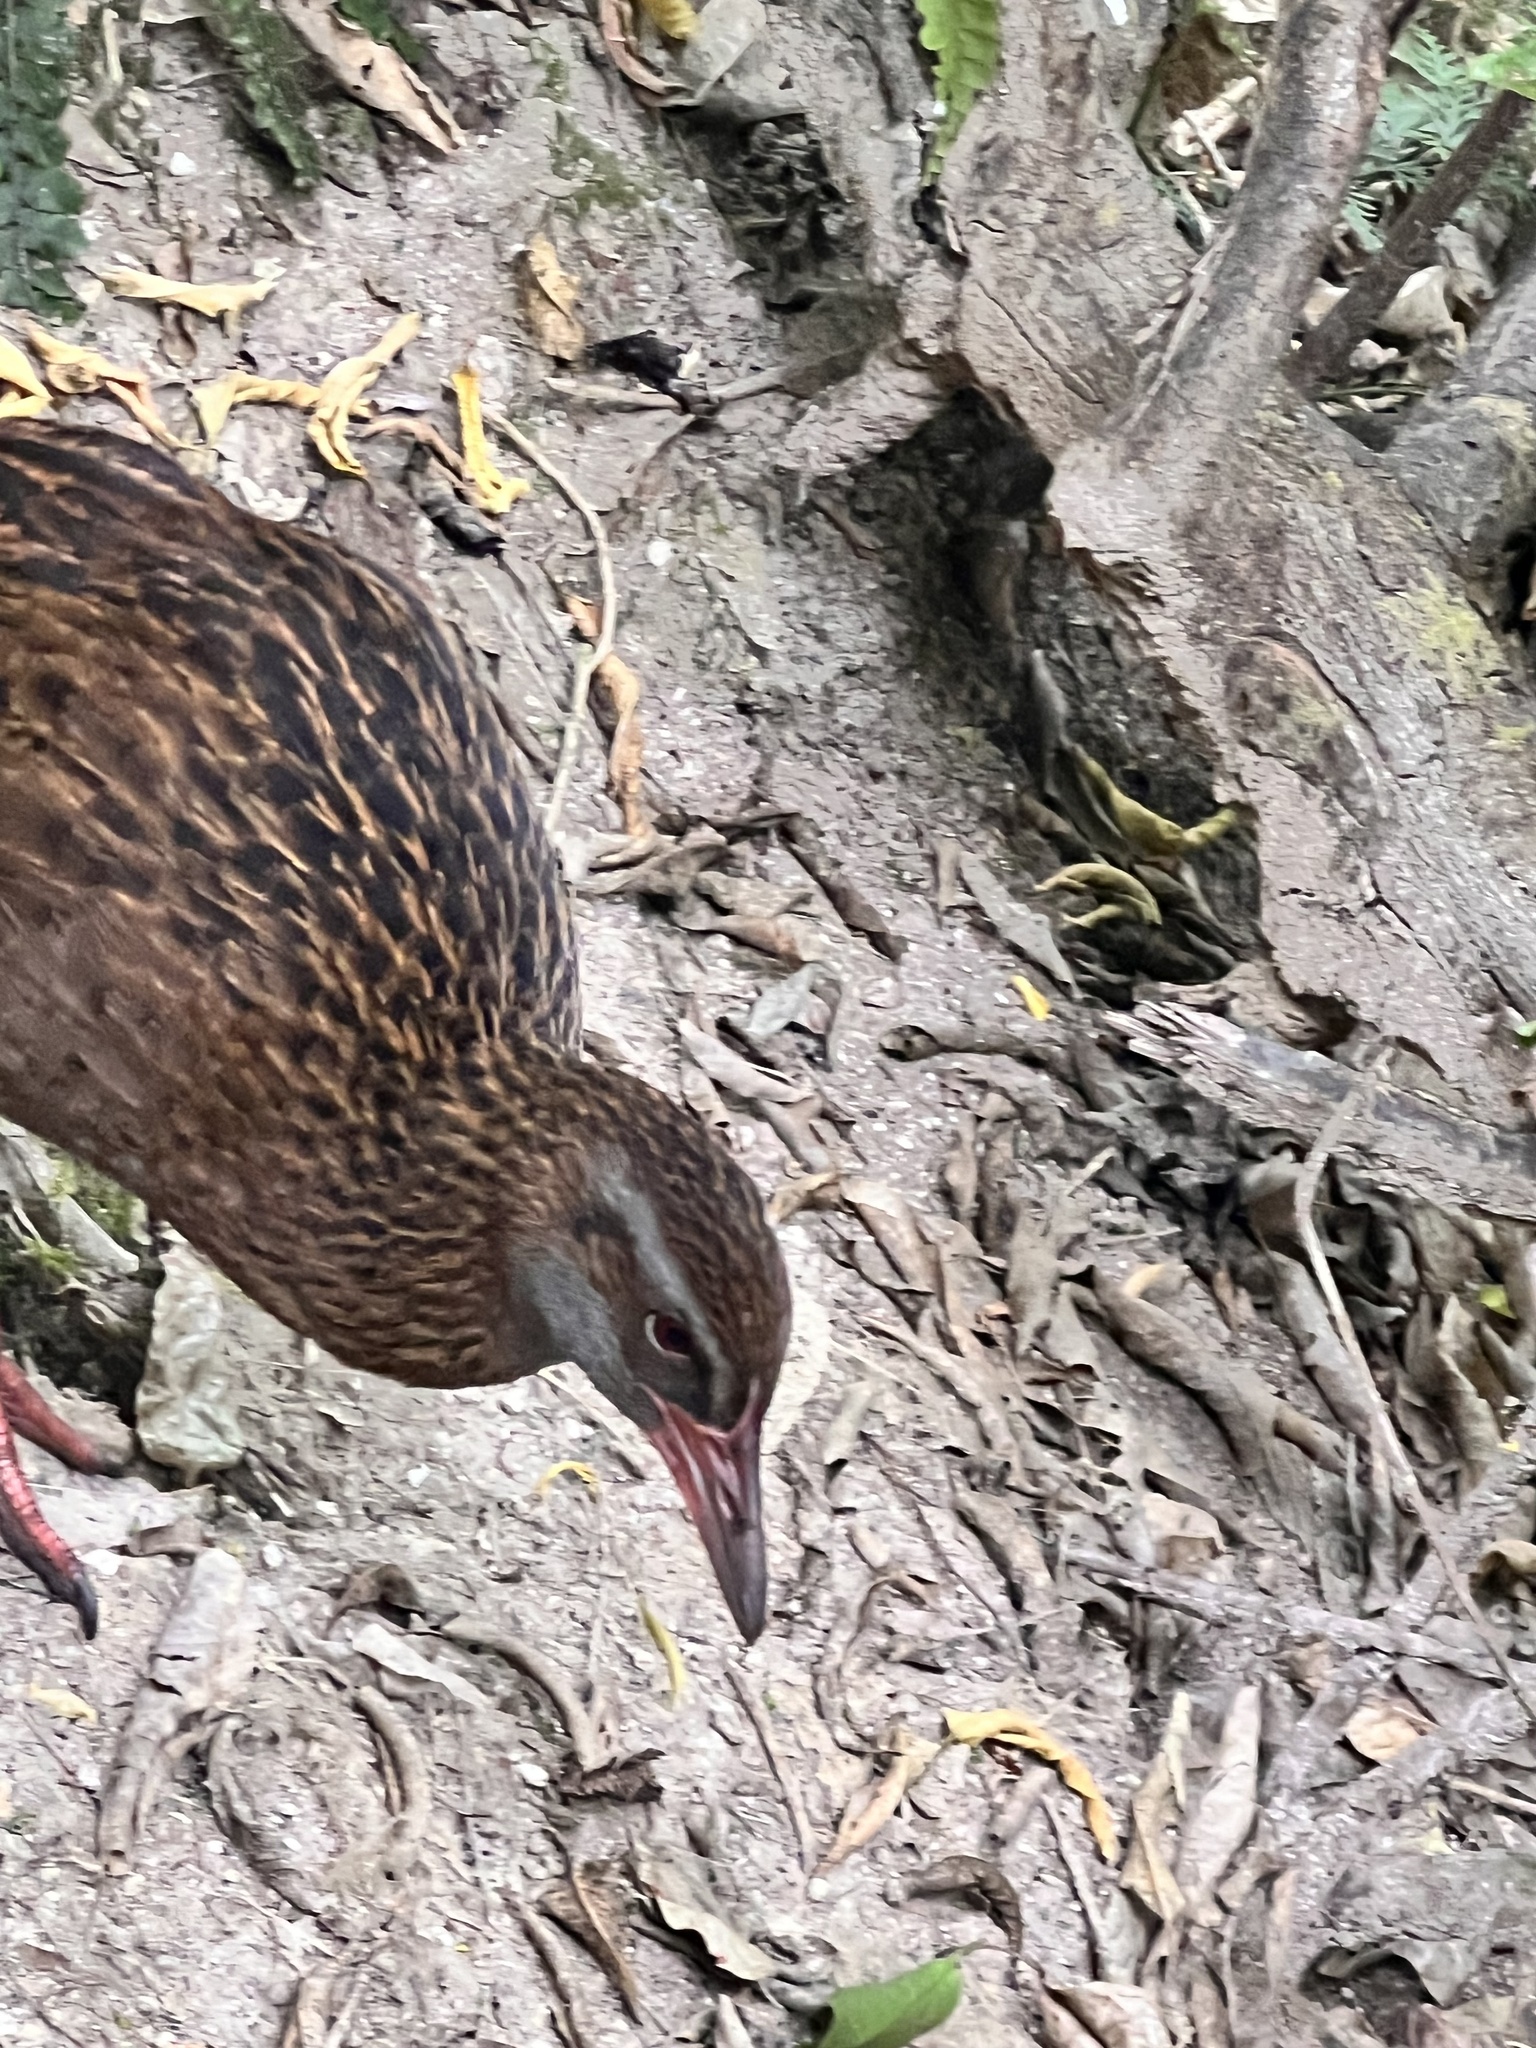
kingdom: Animalia
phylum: Chordata
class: Aves
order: Gruiformes
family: Rallidae
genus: Gallirallus
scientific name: Gallirallus australis
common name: Weka
